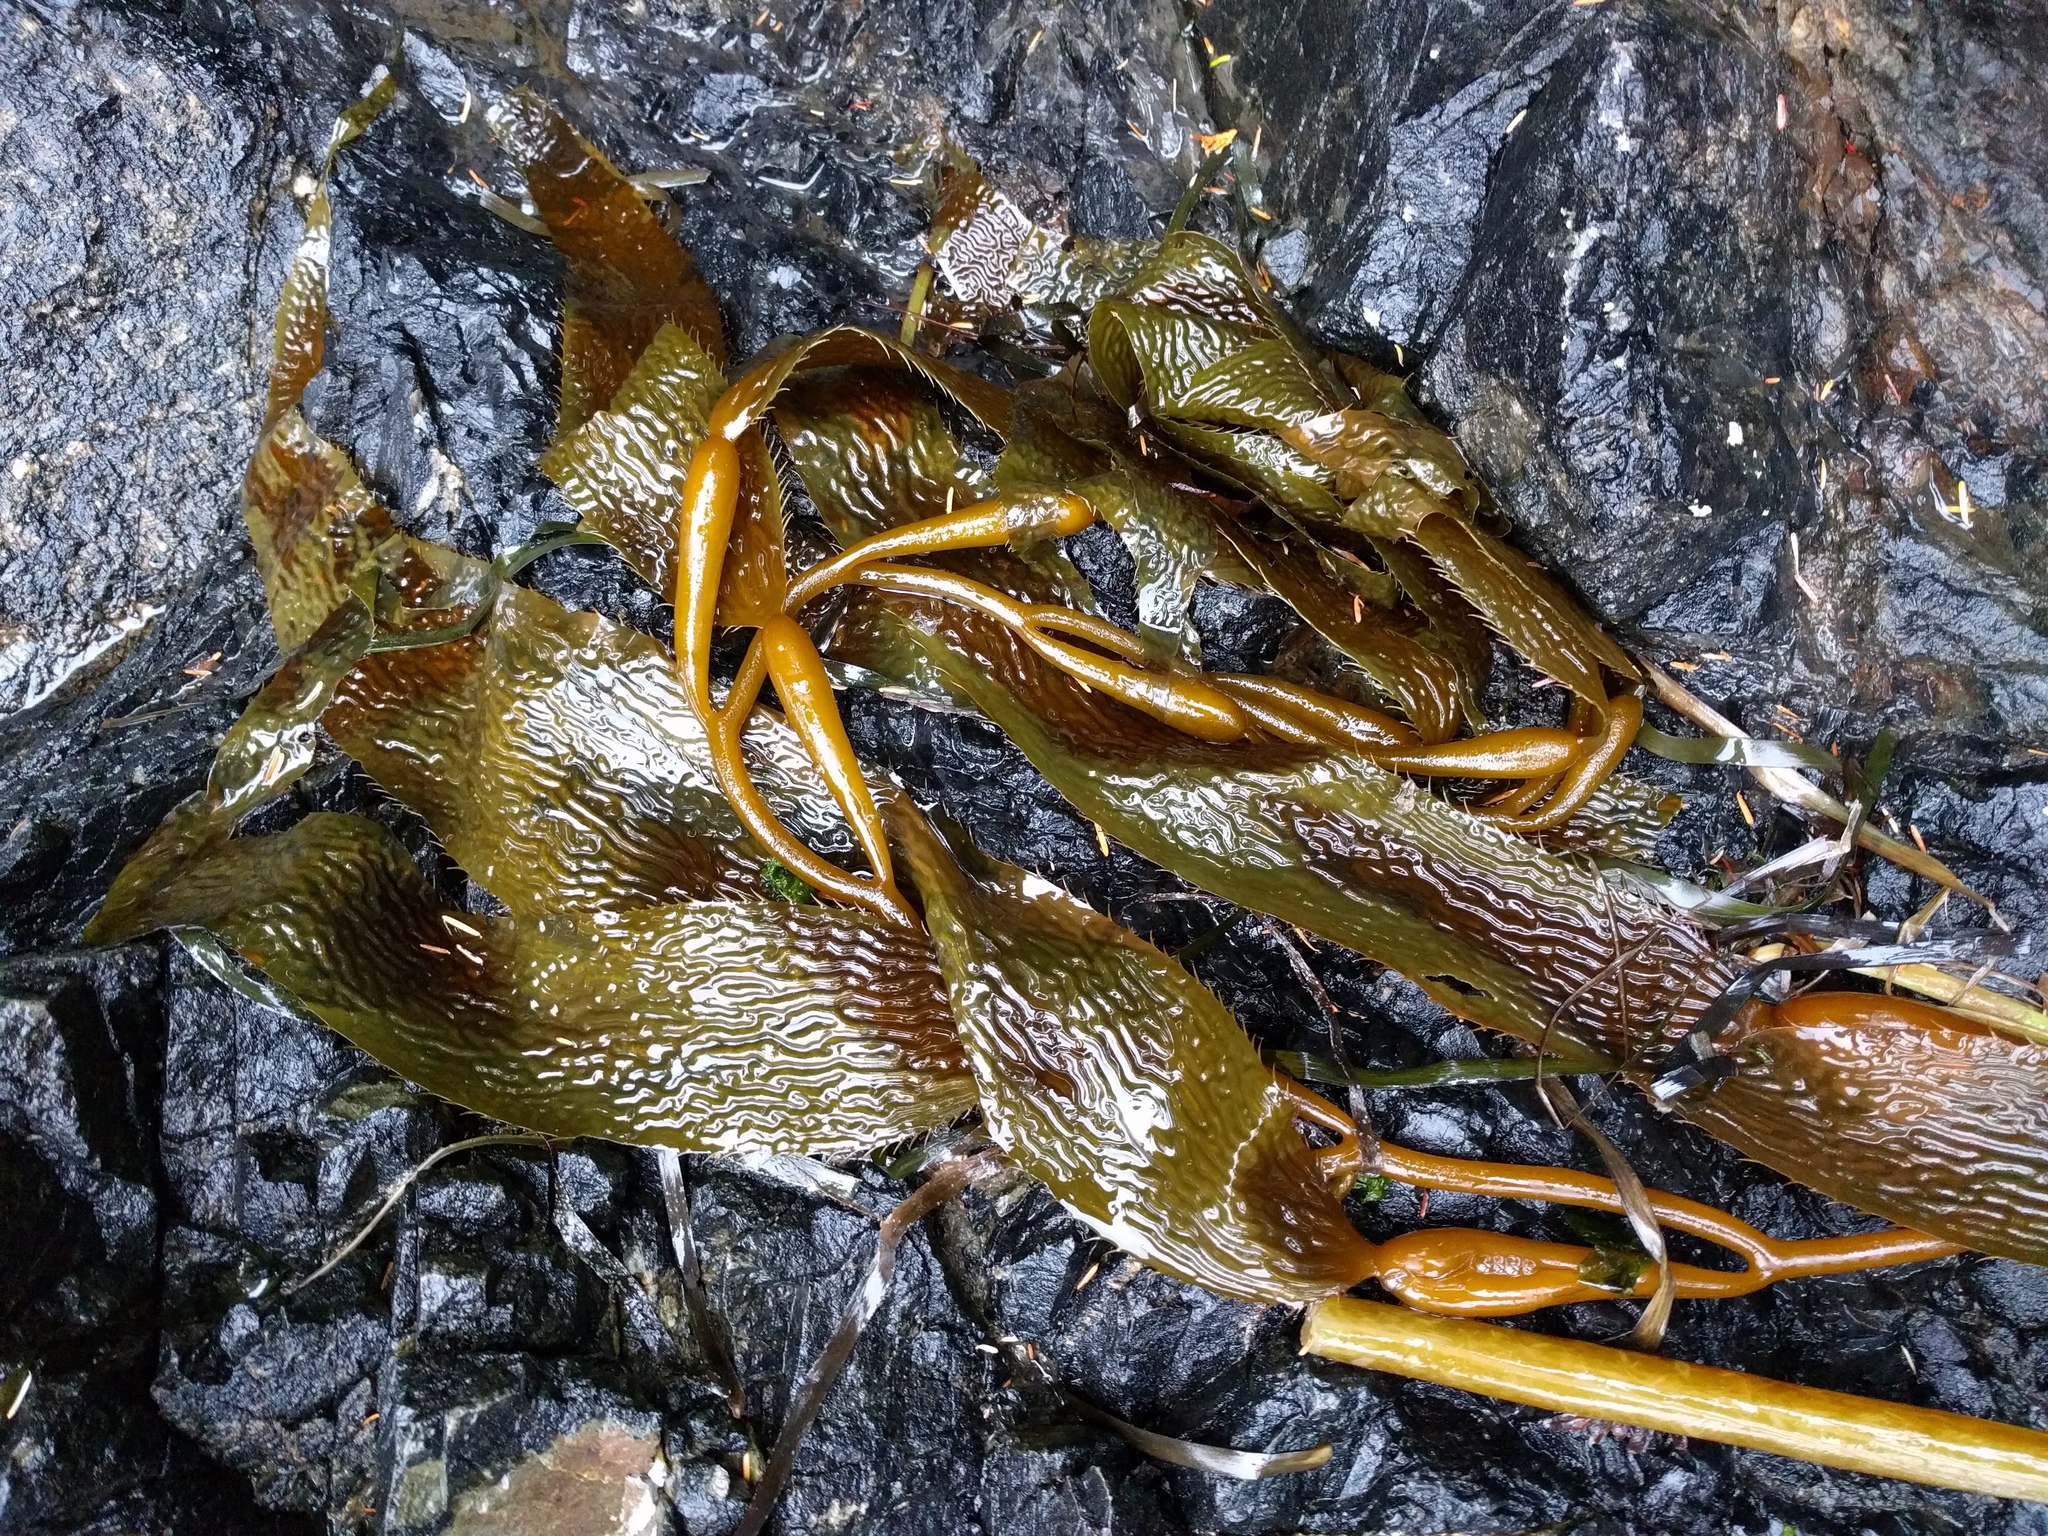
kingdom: Chromista
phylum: Ochrophyta
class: Phaeophyceae
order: Laminariales
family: Laminariaceae
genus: Macrocystis
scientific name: Macrocystis pyrifera
